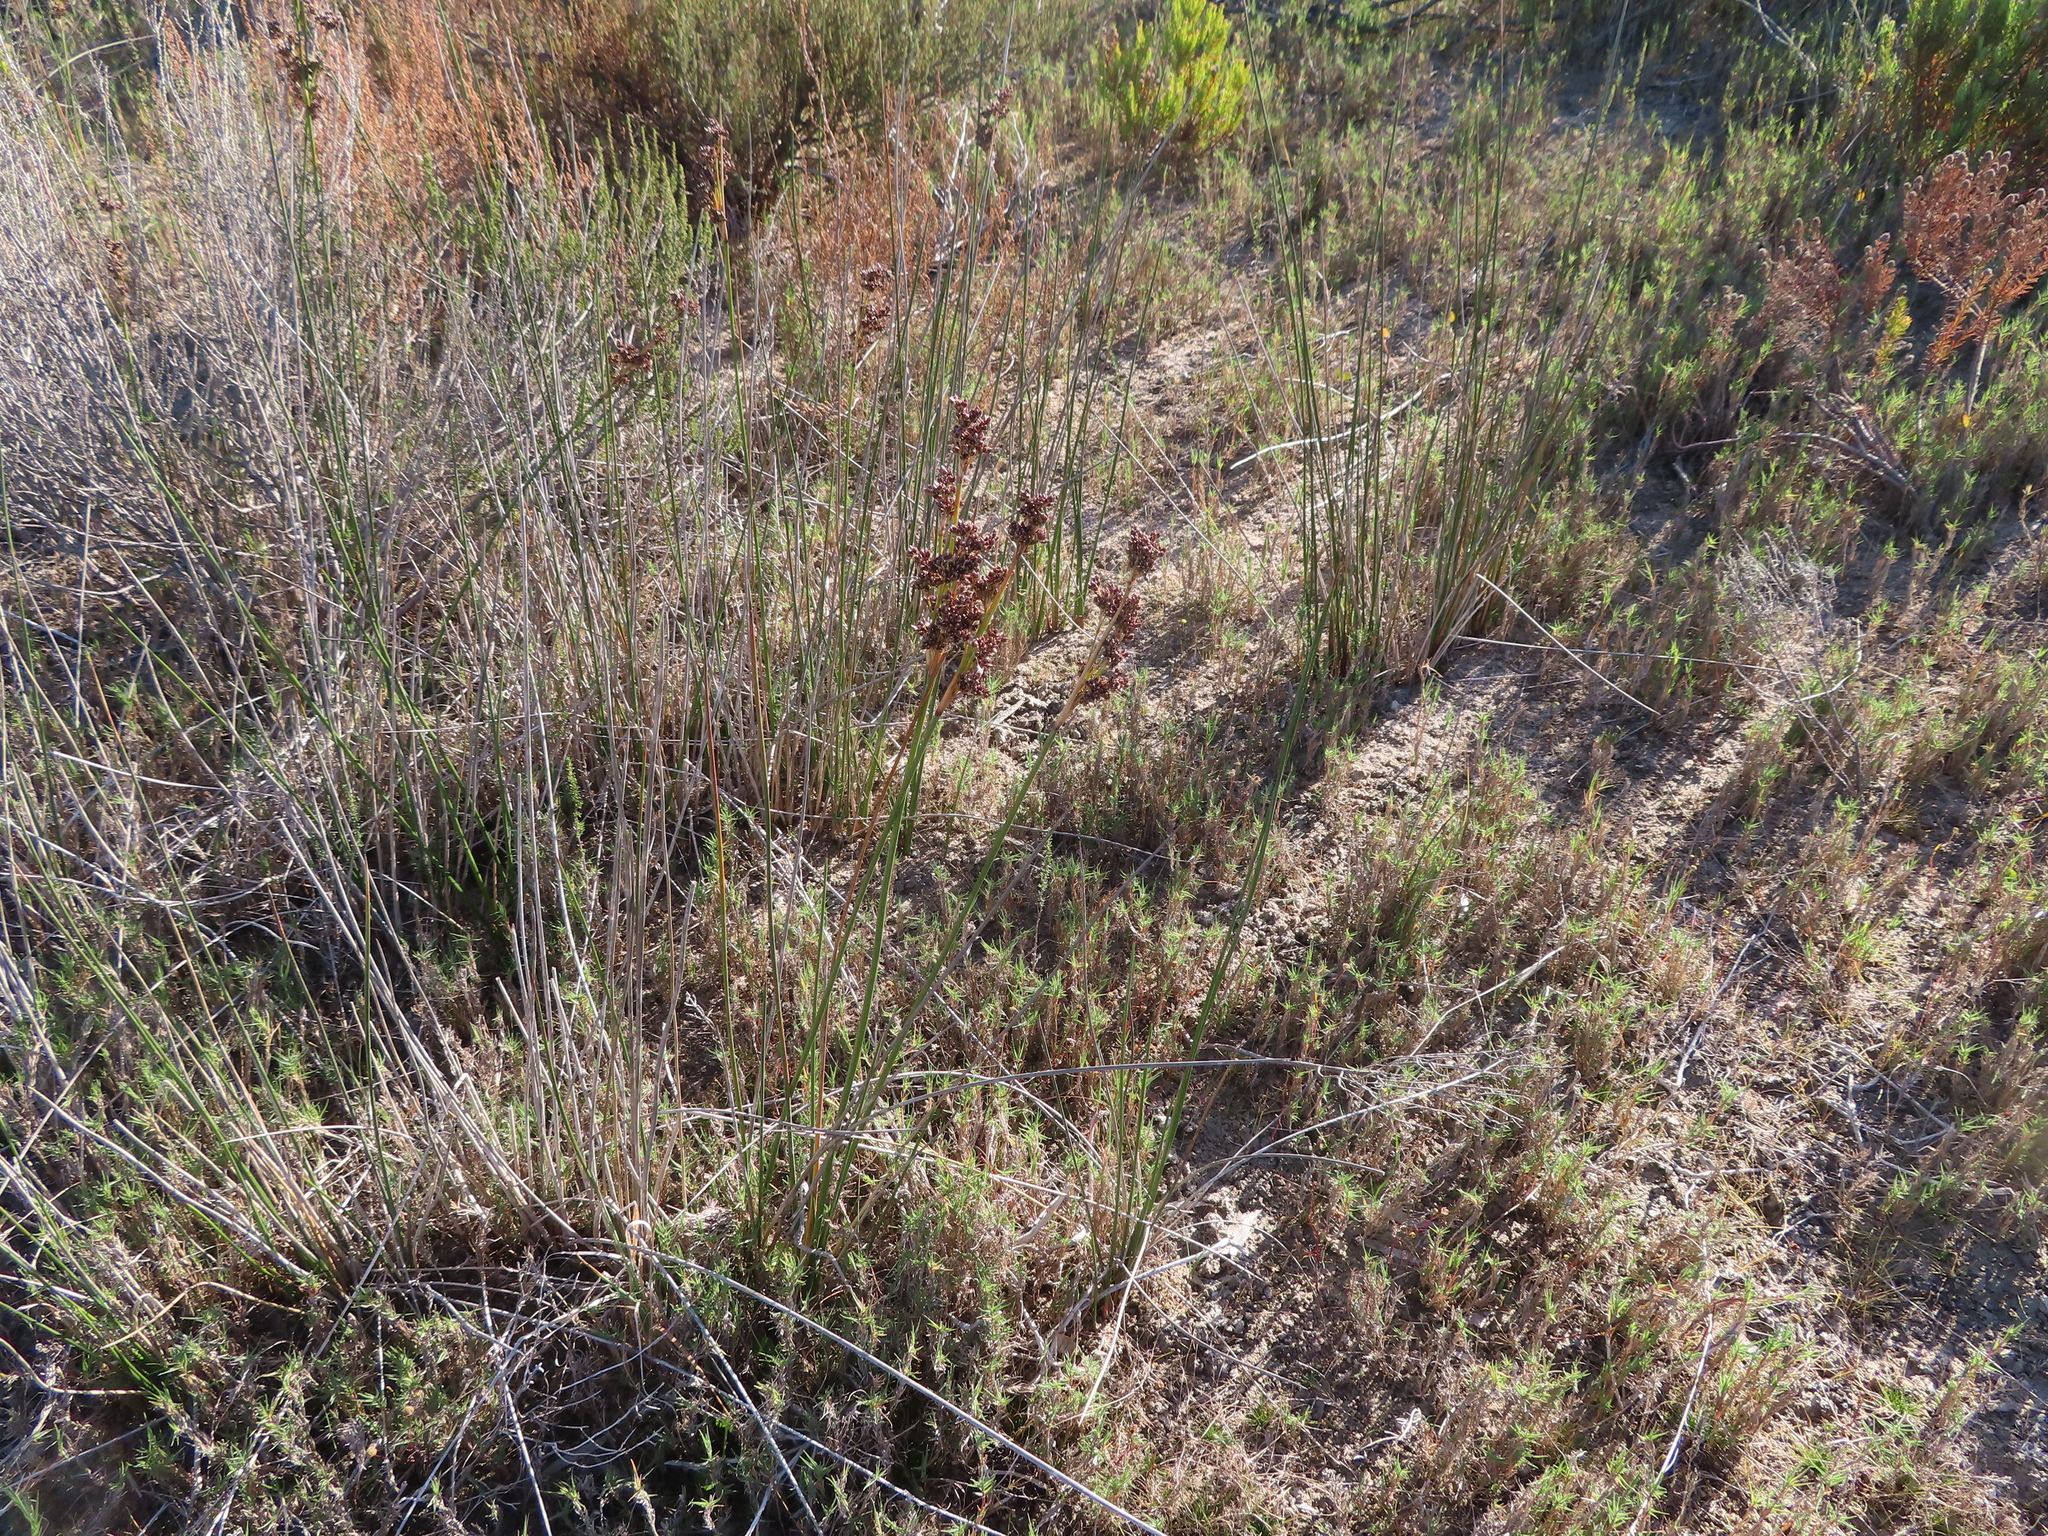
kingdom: Plantae
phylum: Tracheophyta
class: Liliopsida
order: Poales
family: Juncaceae
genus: Juncus
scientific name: Juncus kraussii
